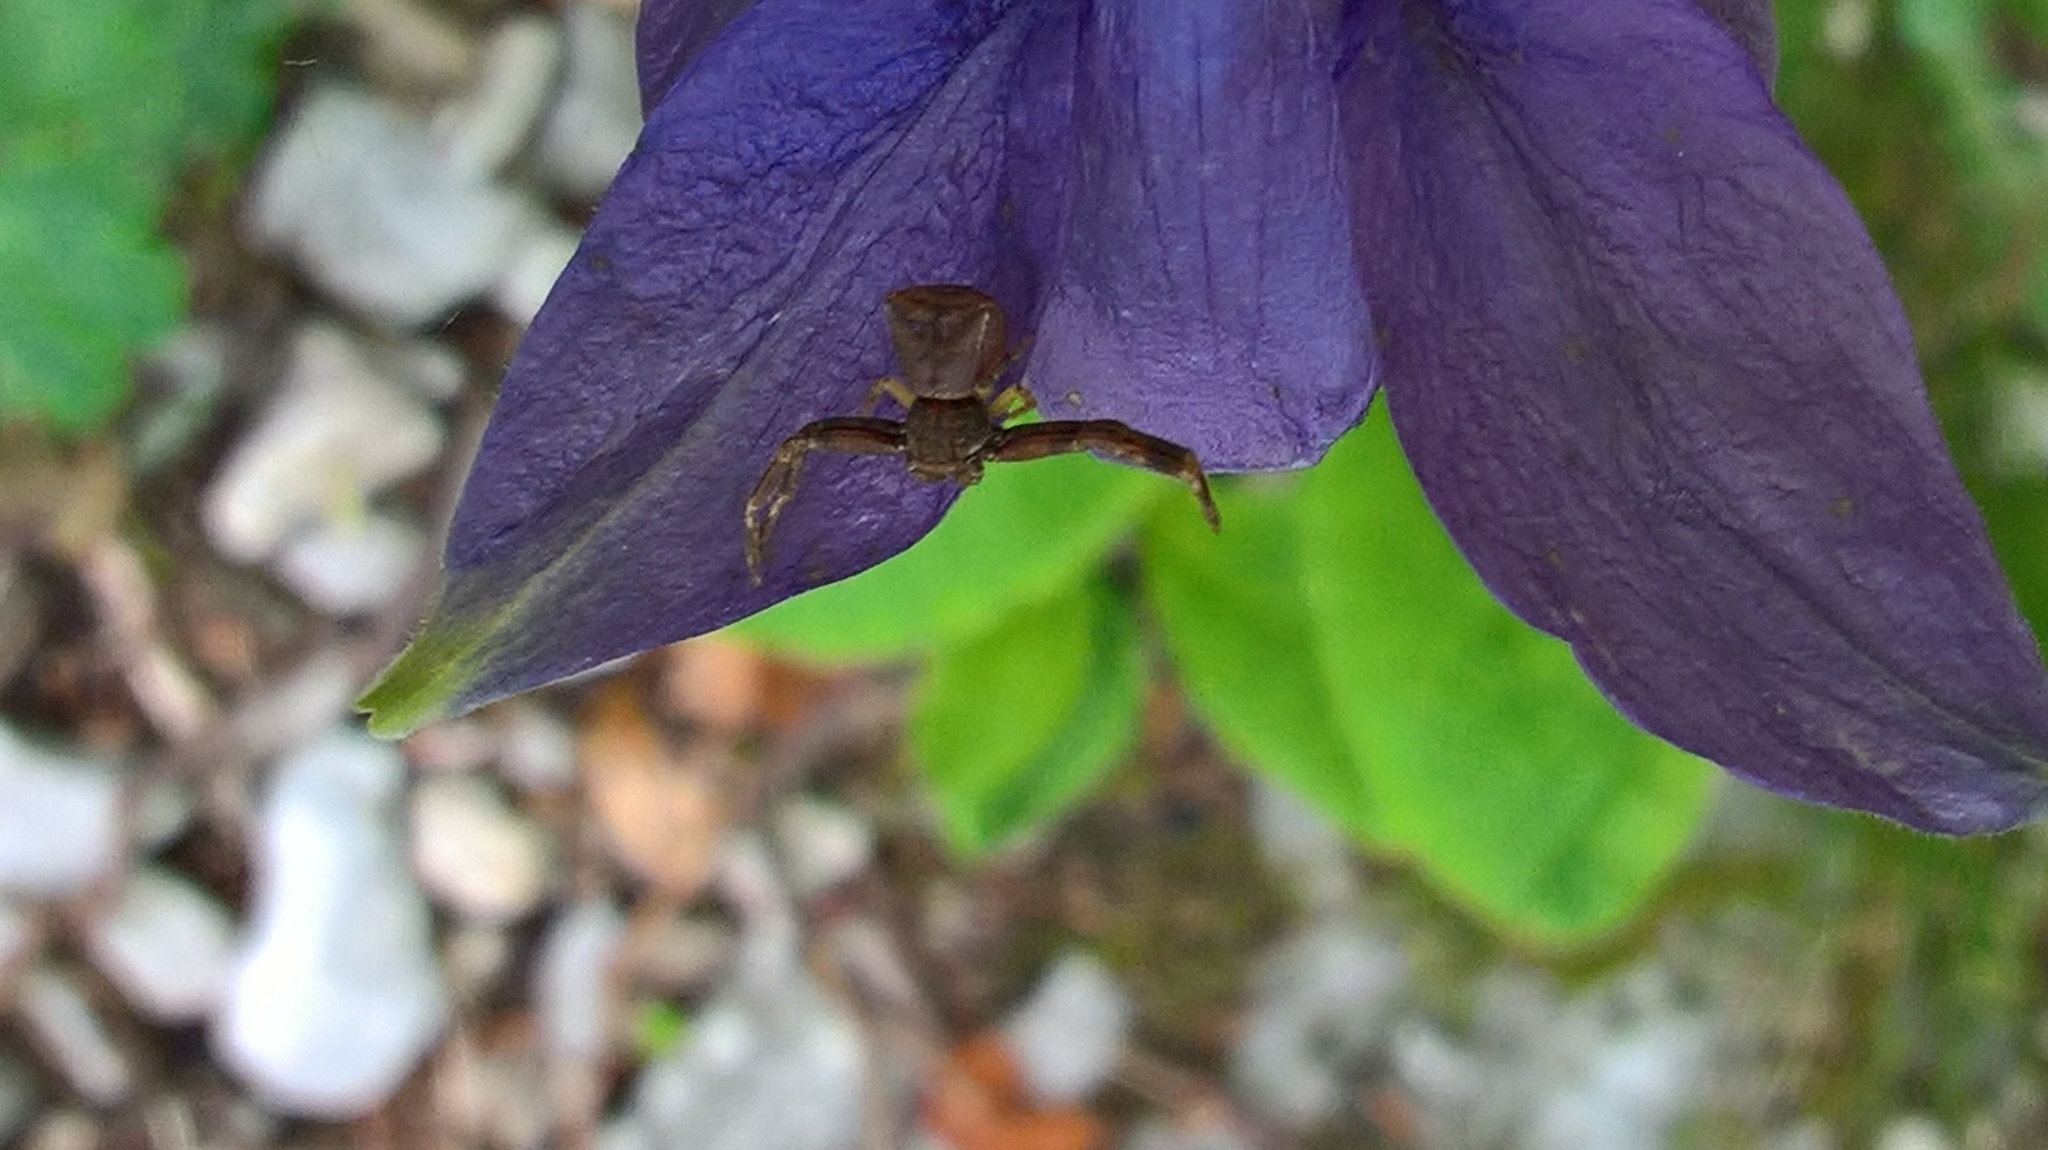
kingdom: Animalia
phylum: Arthropoda
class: Arachnida
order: Araneae
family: Thomisidae
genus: Pistius
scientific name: Pistius truncatus
